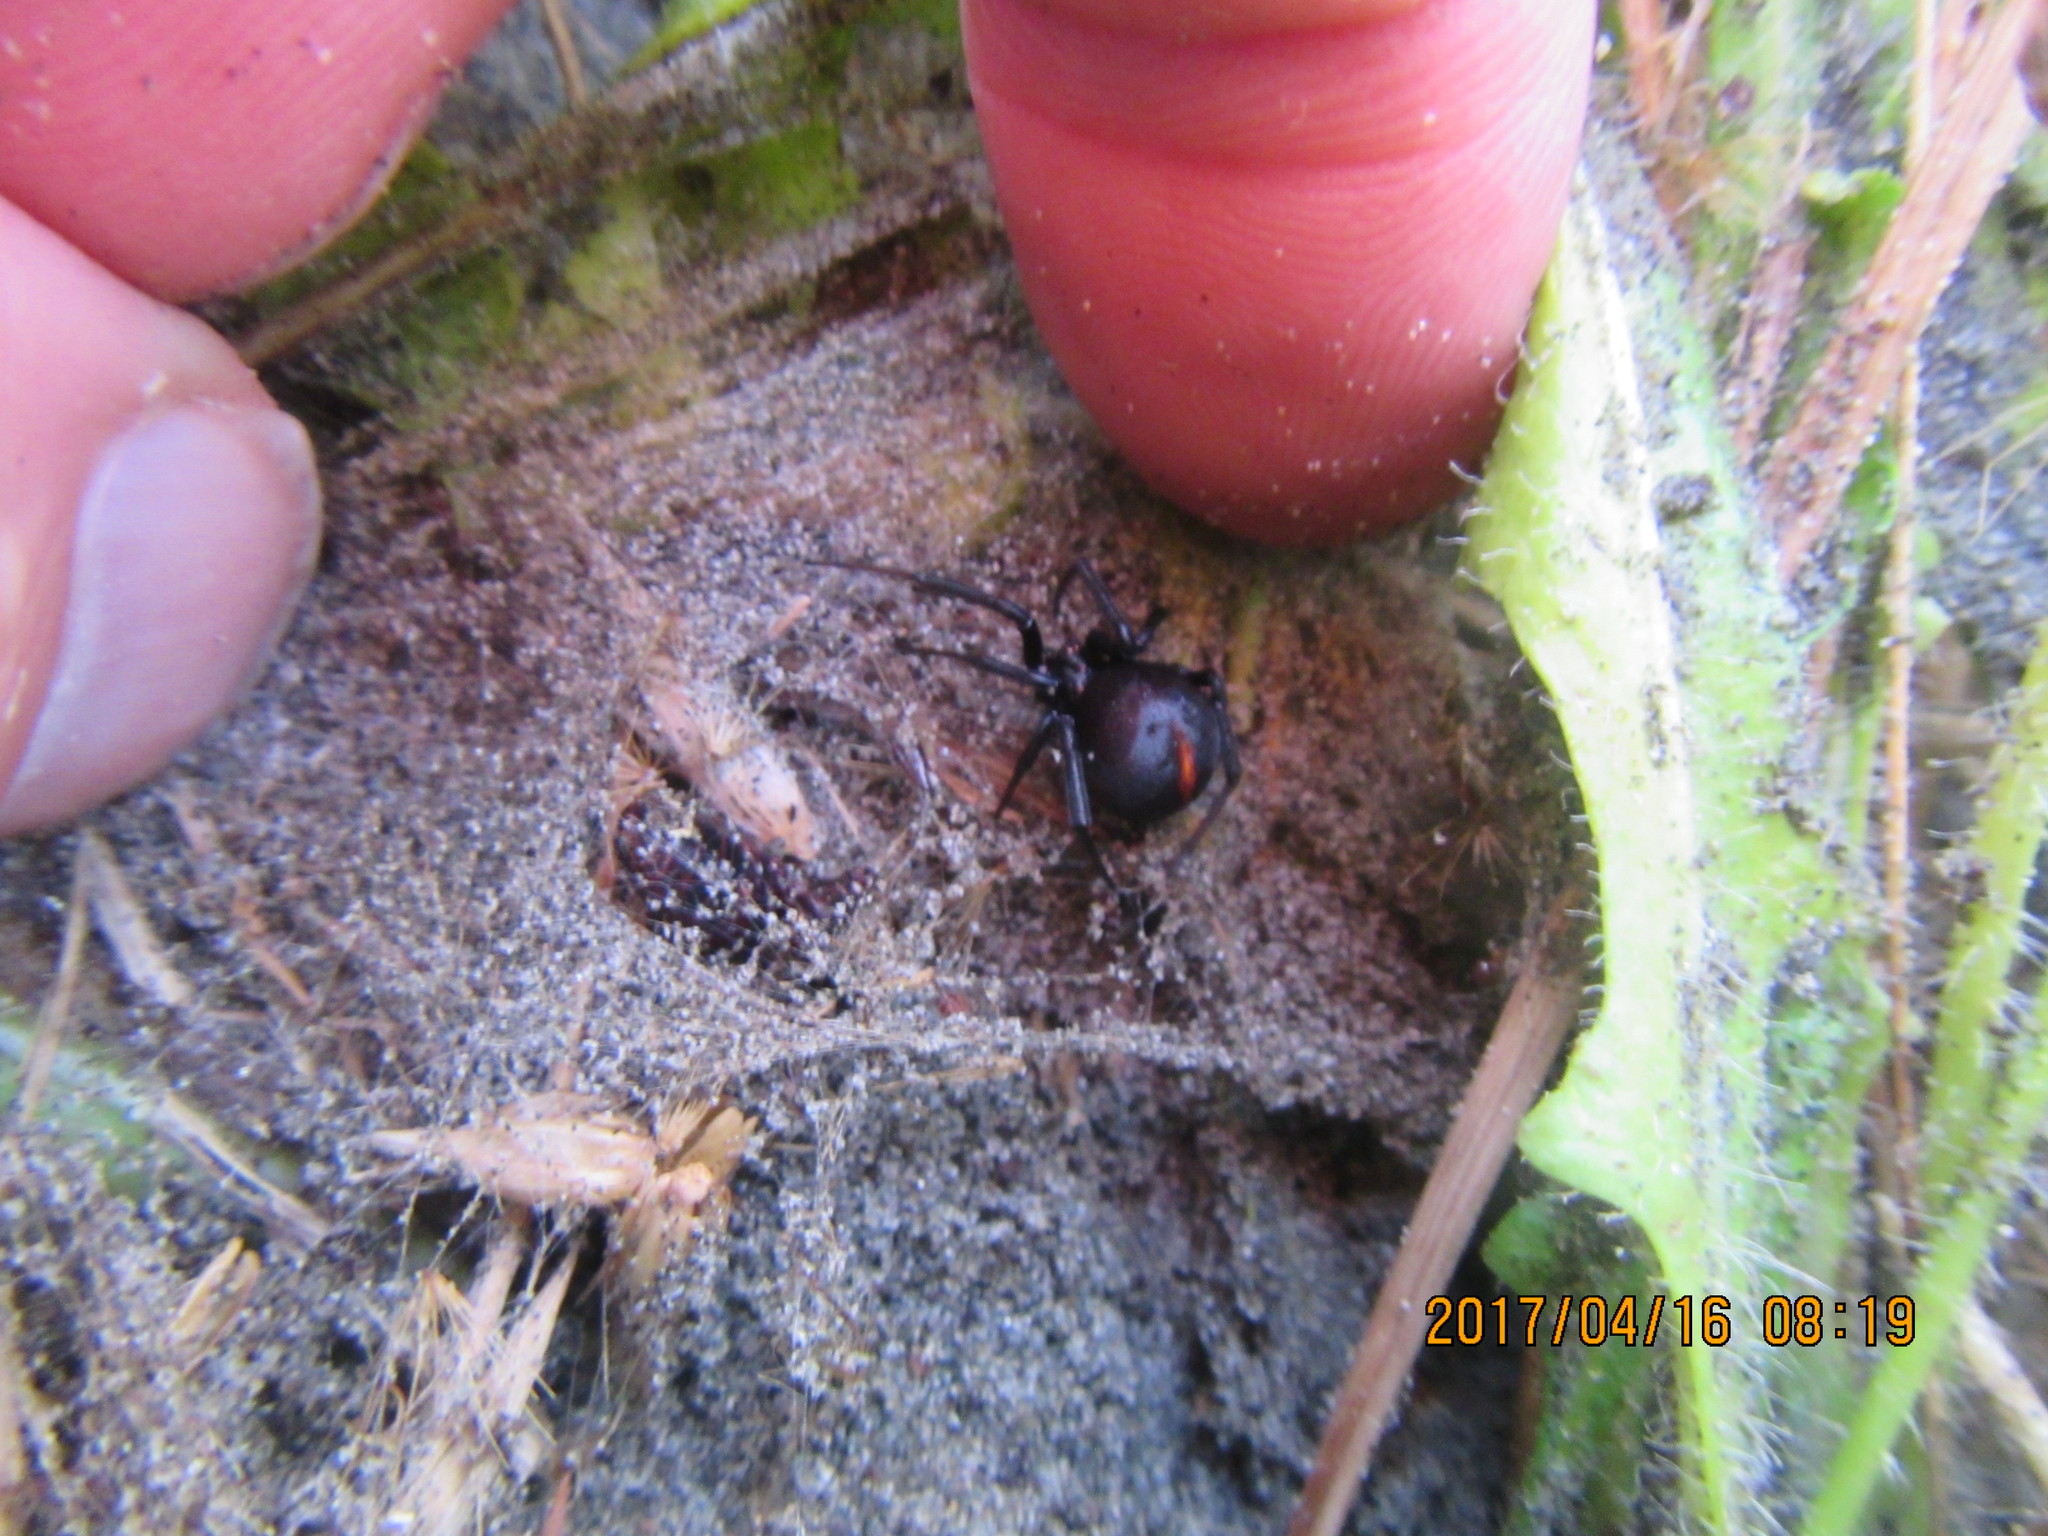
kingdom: Animalia
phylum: Arthropoda
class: Arachnida
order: Araneae
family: Theridiidae
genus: Latrodectus
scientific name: Latrodectus katipo
